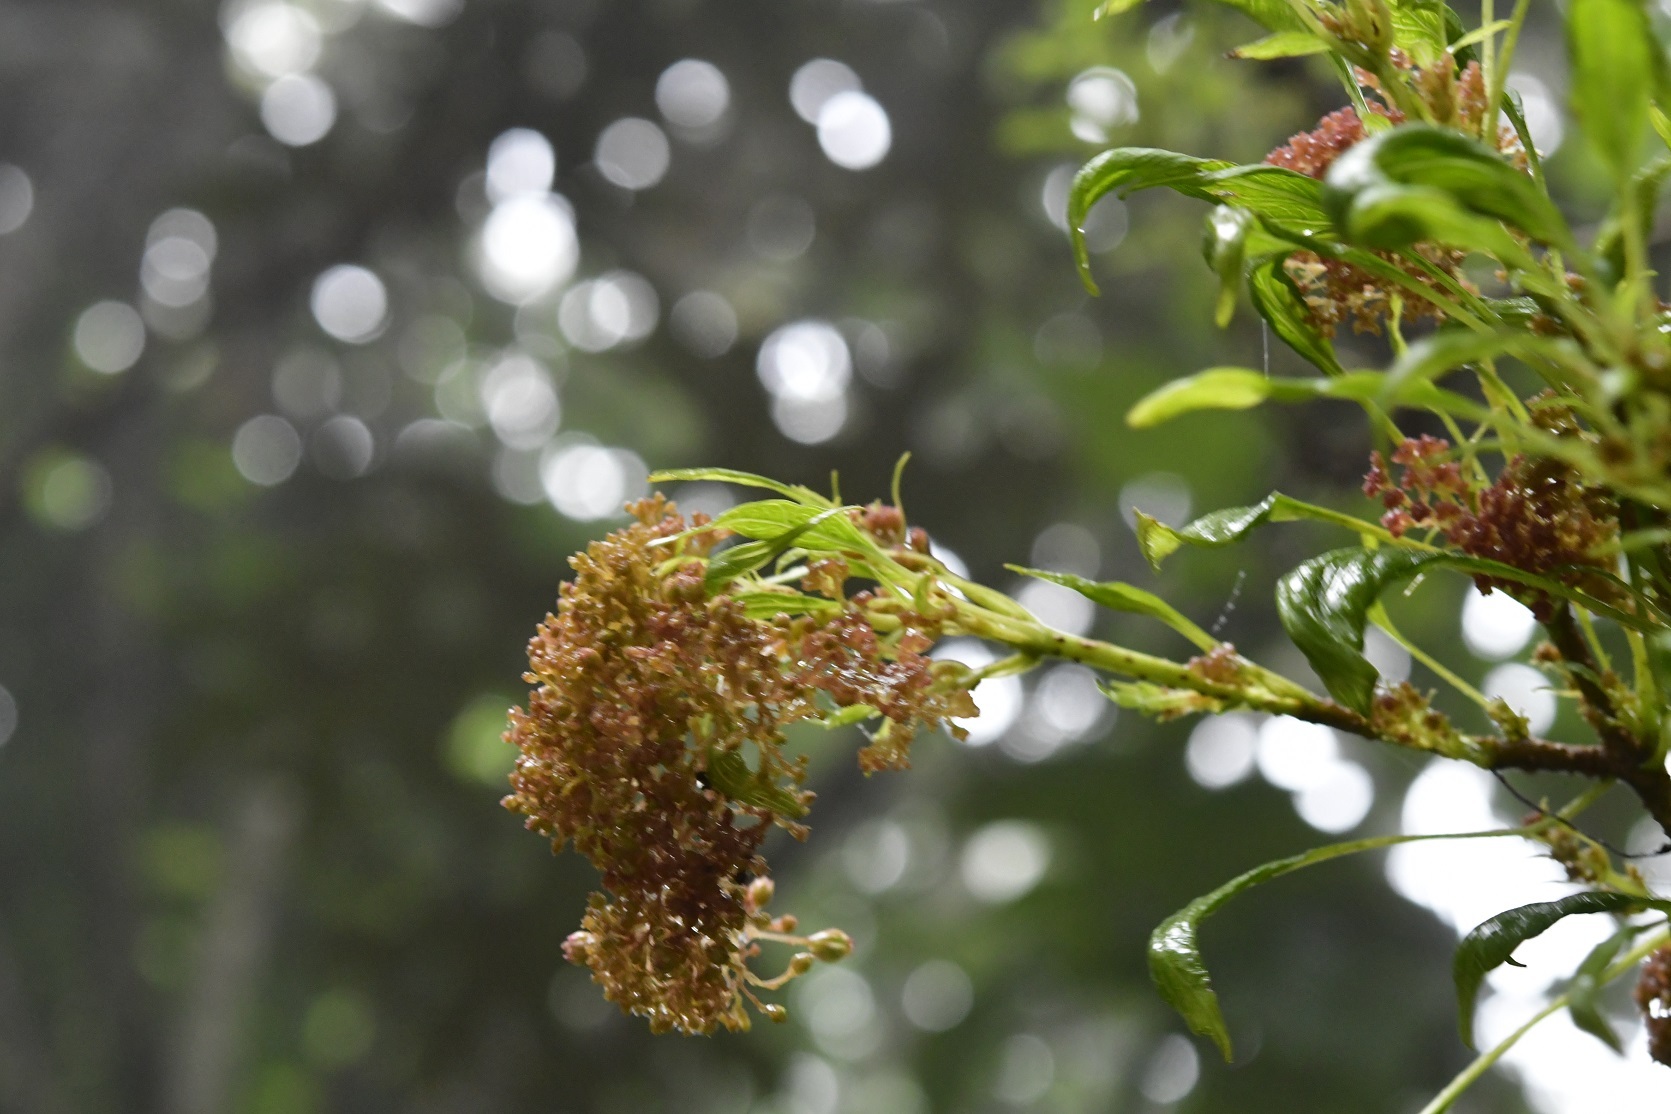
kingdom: Plantae
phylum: Tracheophyta
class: Magnoliopsida
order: Asterales
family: Asteraceae
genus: Pittocaulon
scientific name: Pittocaulon velatum
